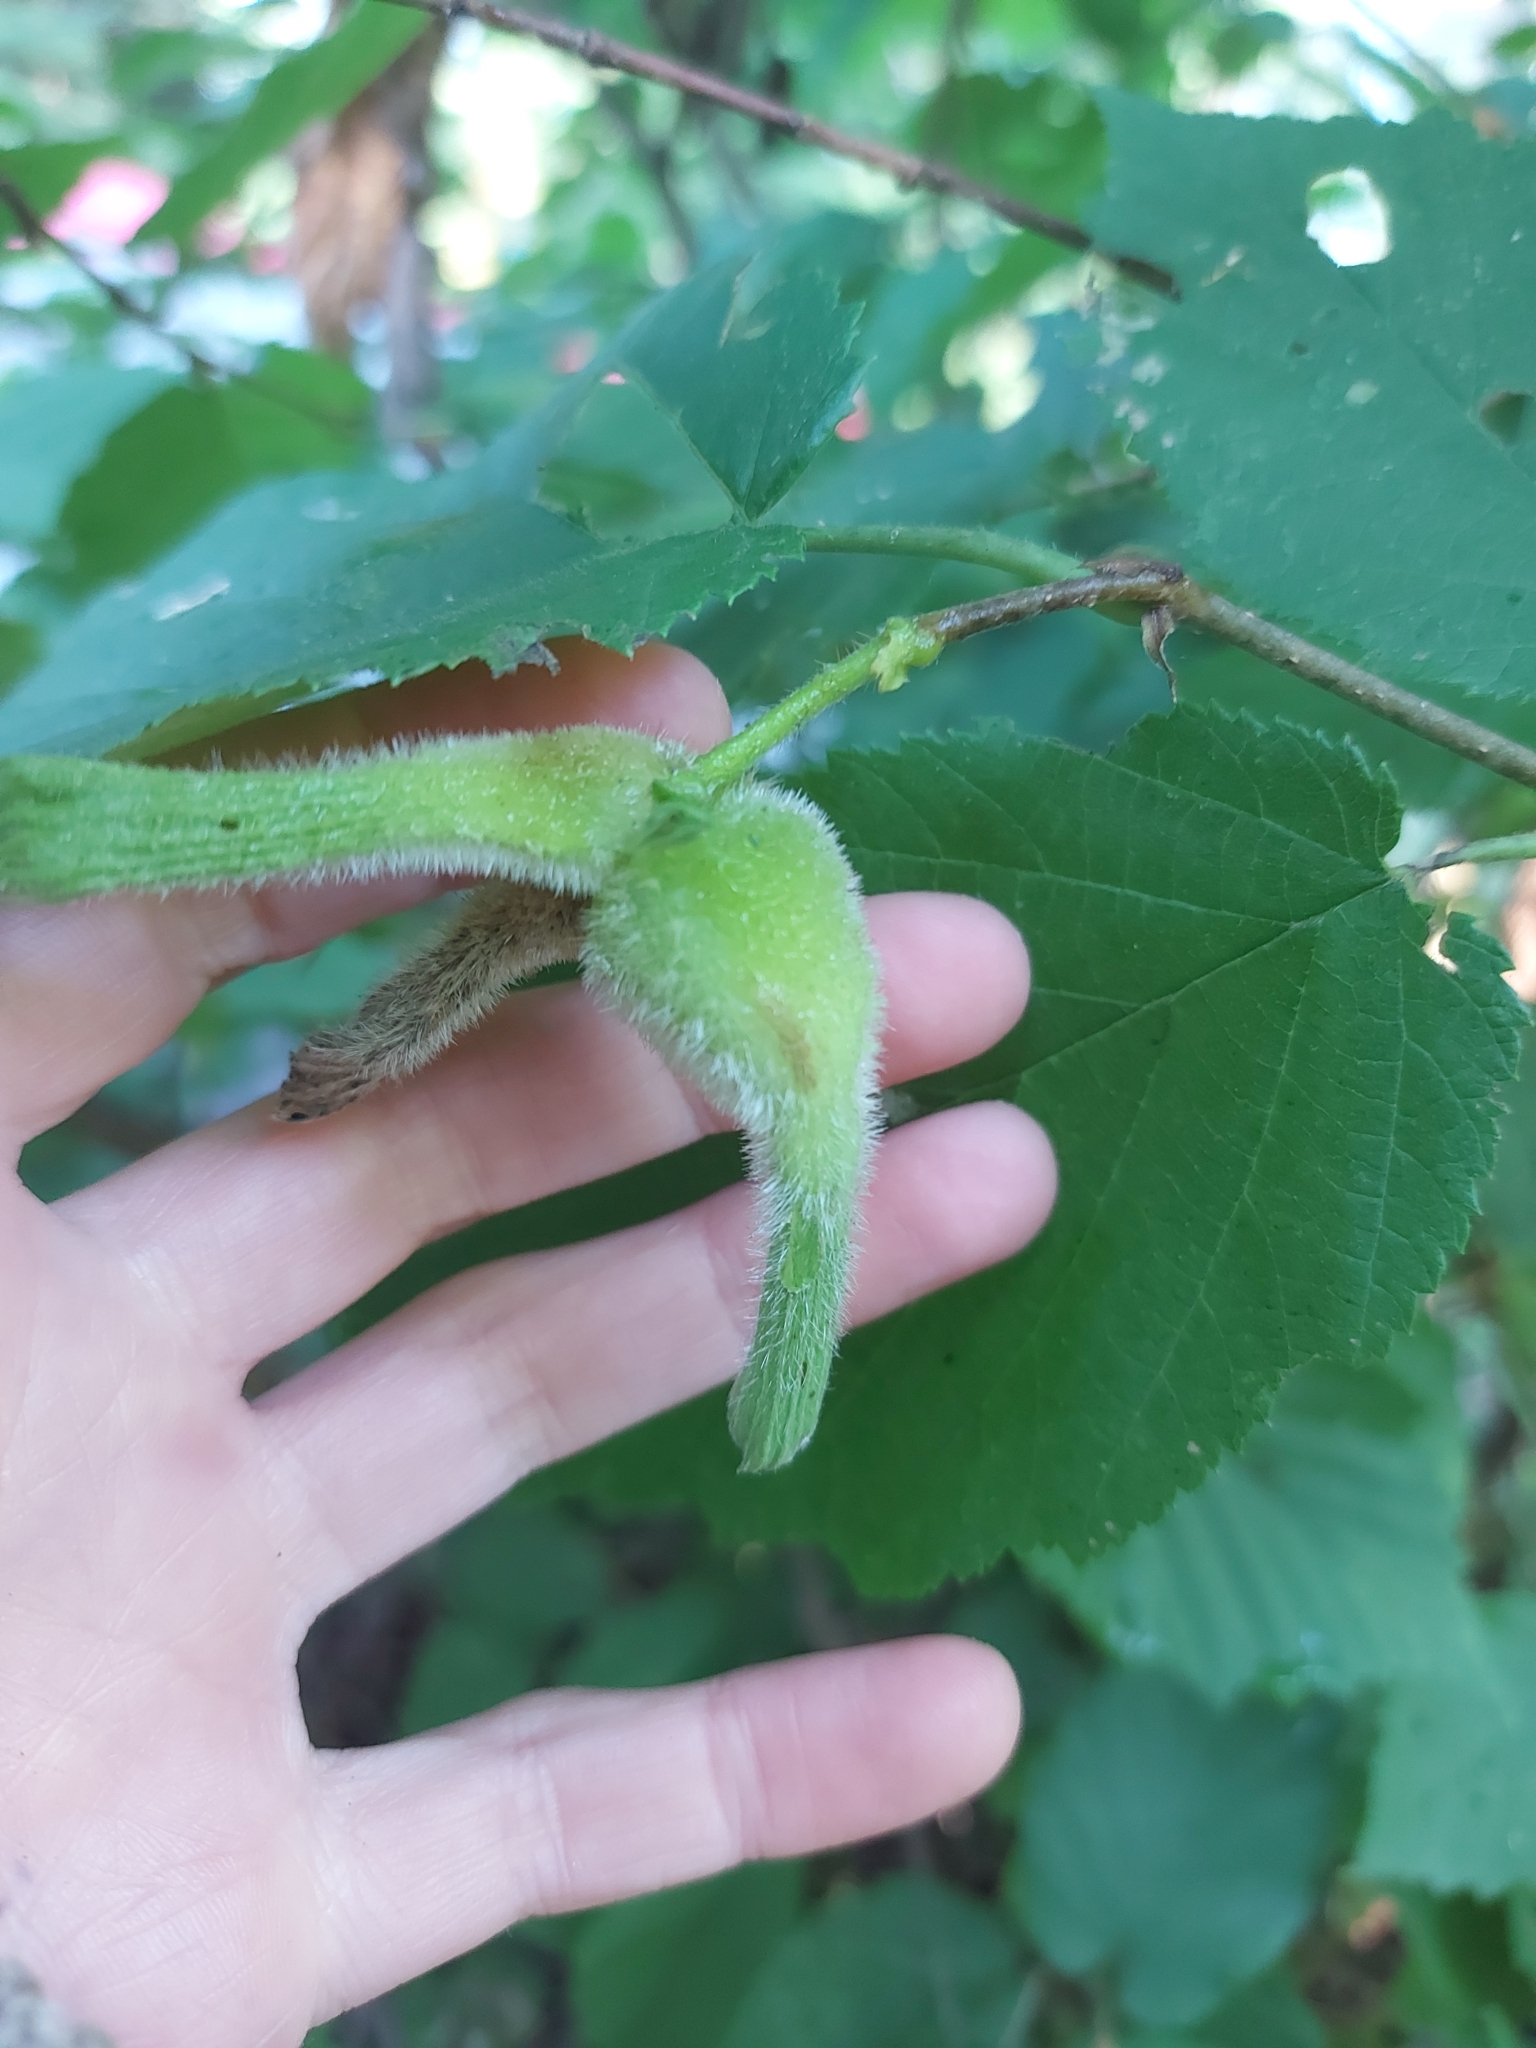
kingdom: Plantae
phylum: Tracheophyta
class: Magnoliopsida
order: Fagales
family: Betulaceae
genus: Corylus
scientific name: Corylus cornuta
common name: Beaked hazel
